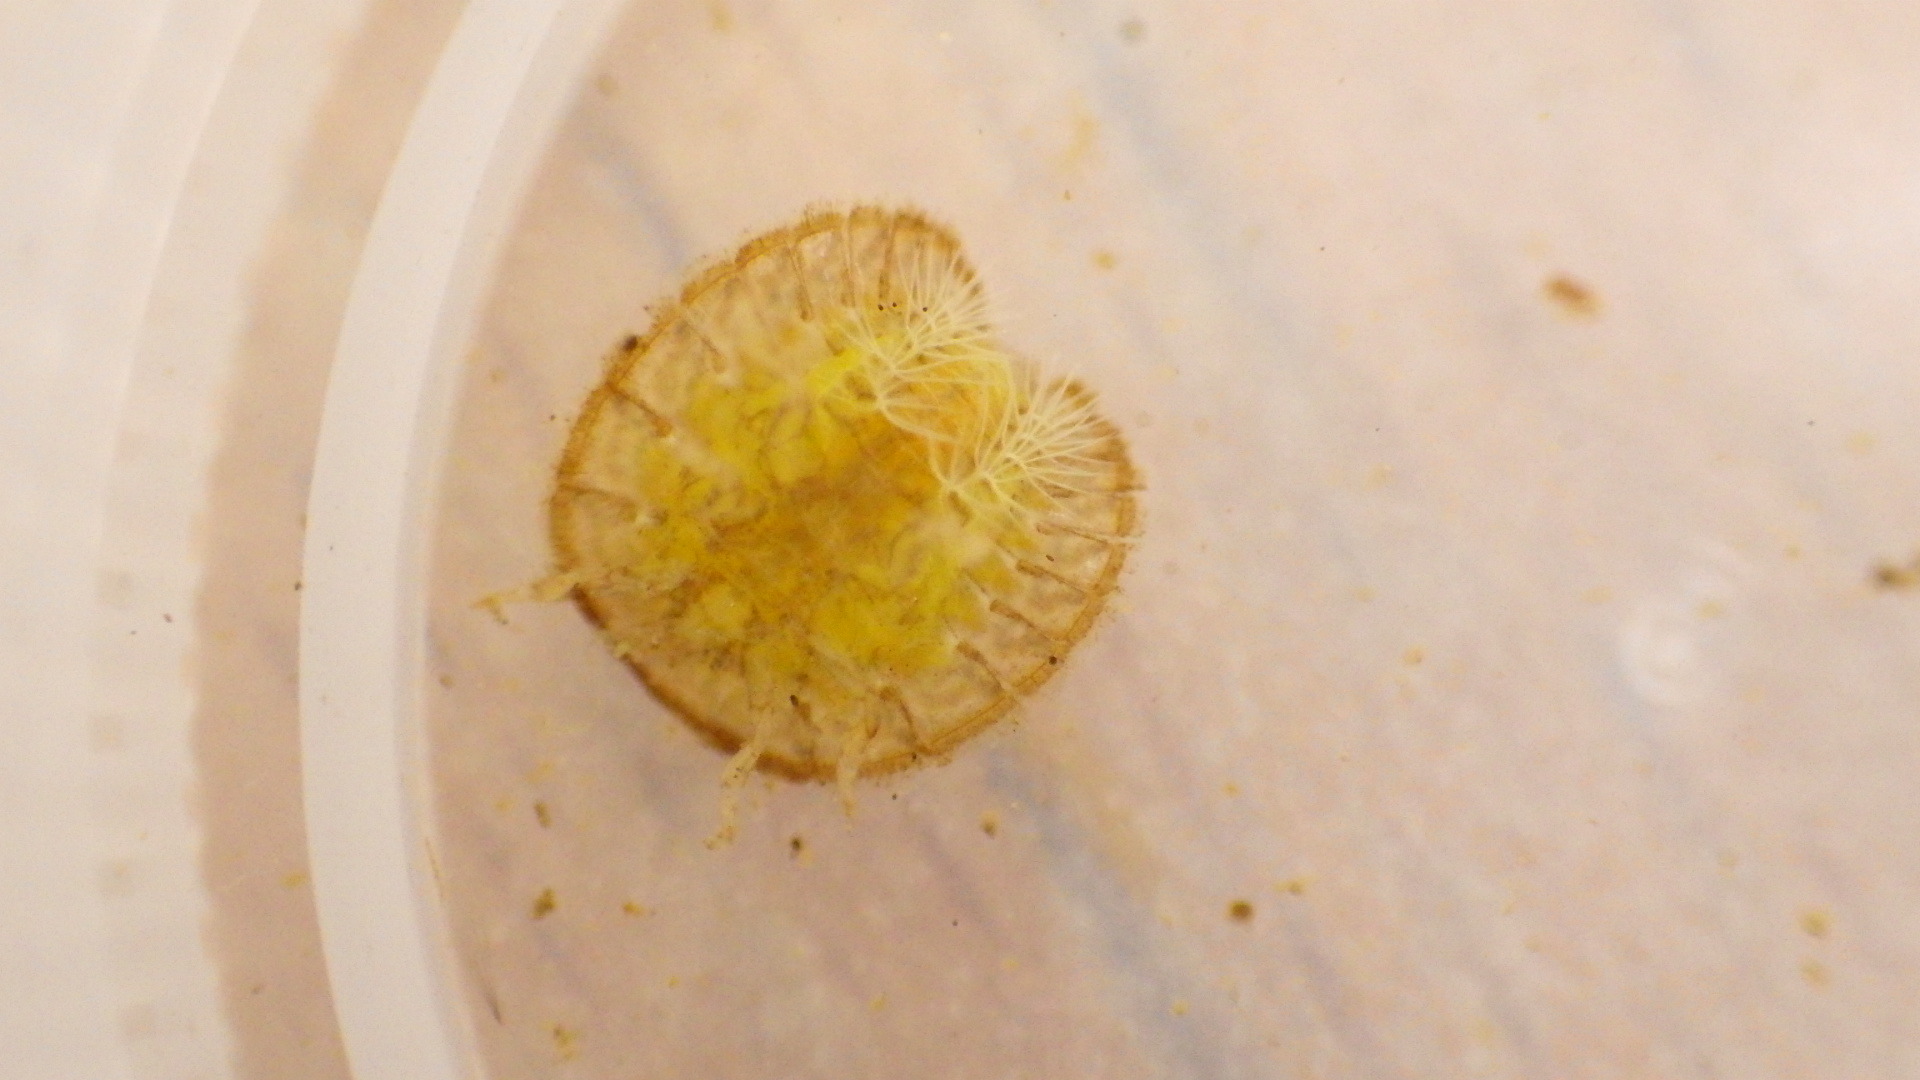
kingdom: Animalia
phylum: Arthropoda
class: Insecta
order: Coleoptera
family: Psephenidae
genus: Psephenus
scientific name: Psephenus herricki
